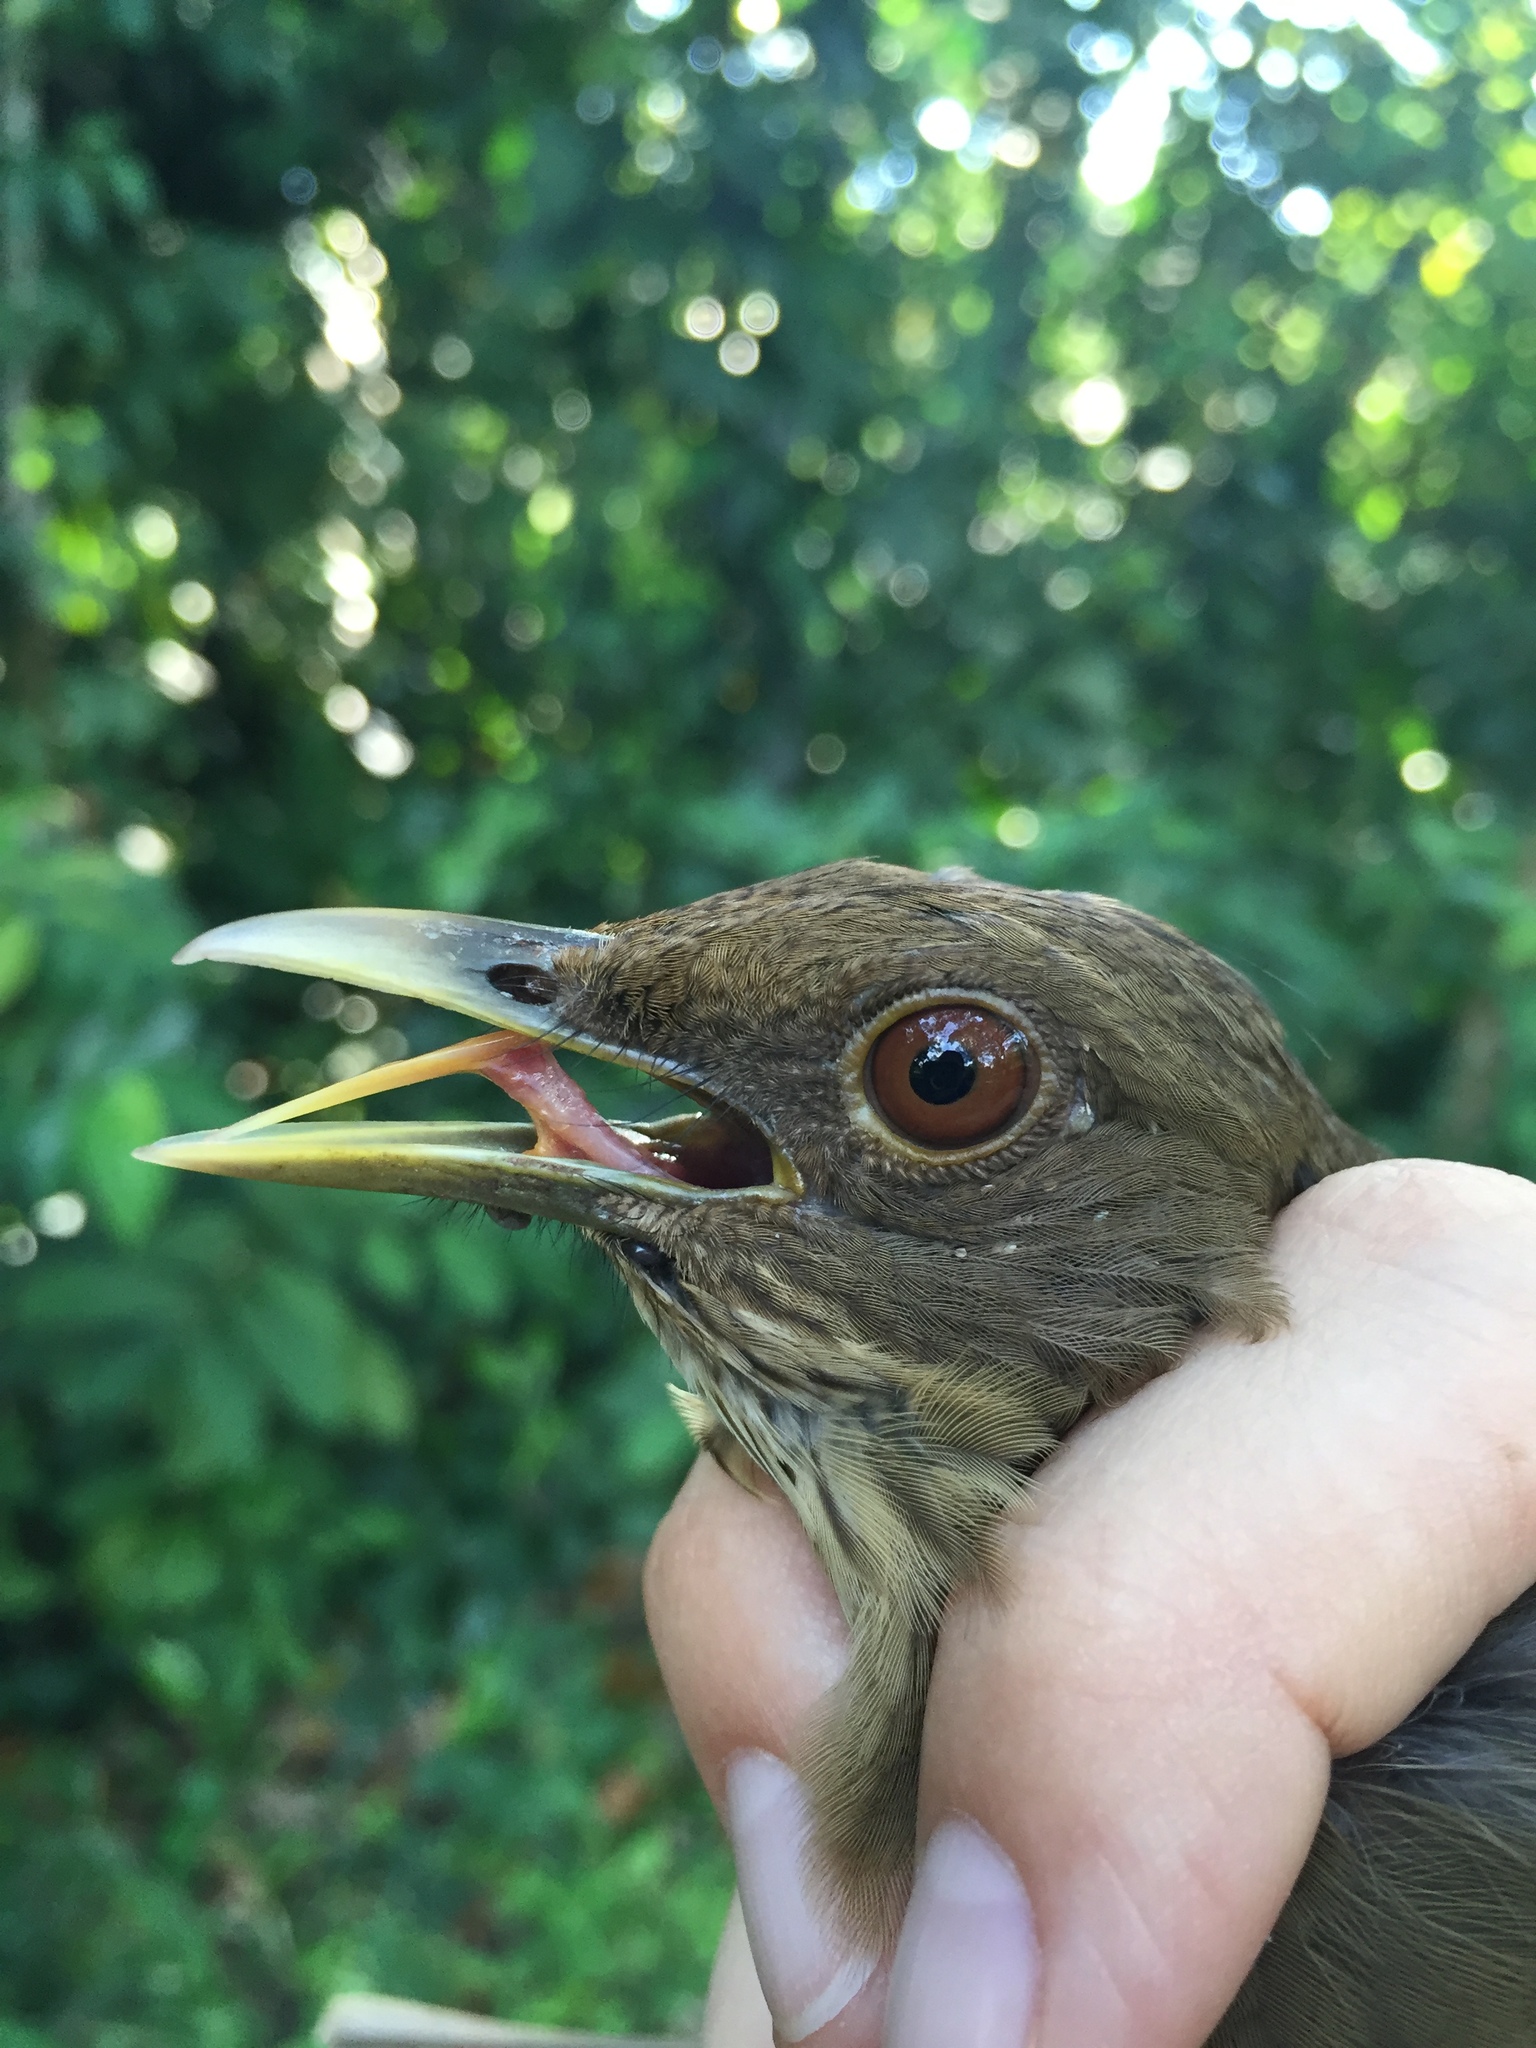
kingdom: Animalia
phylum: Chordata
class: Aves
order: Passeriformes
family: Turdidae
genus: Turdus
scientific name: Turdus grayi
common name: Clay-colored thrush
